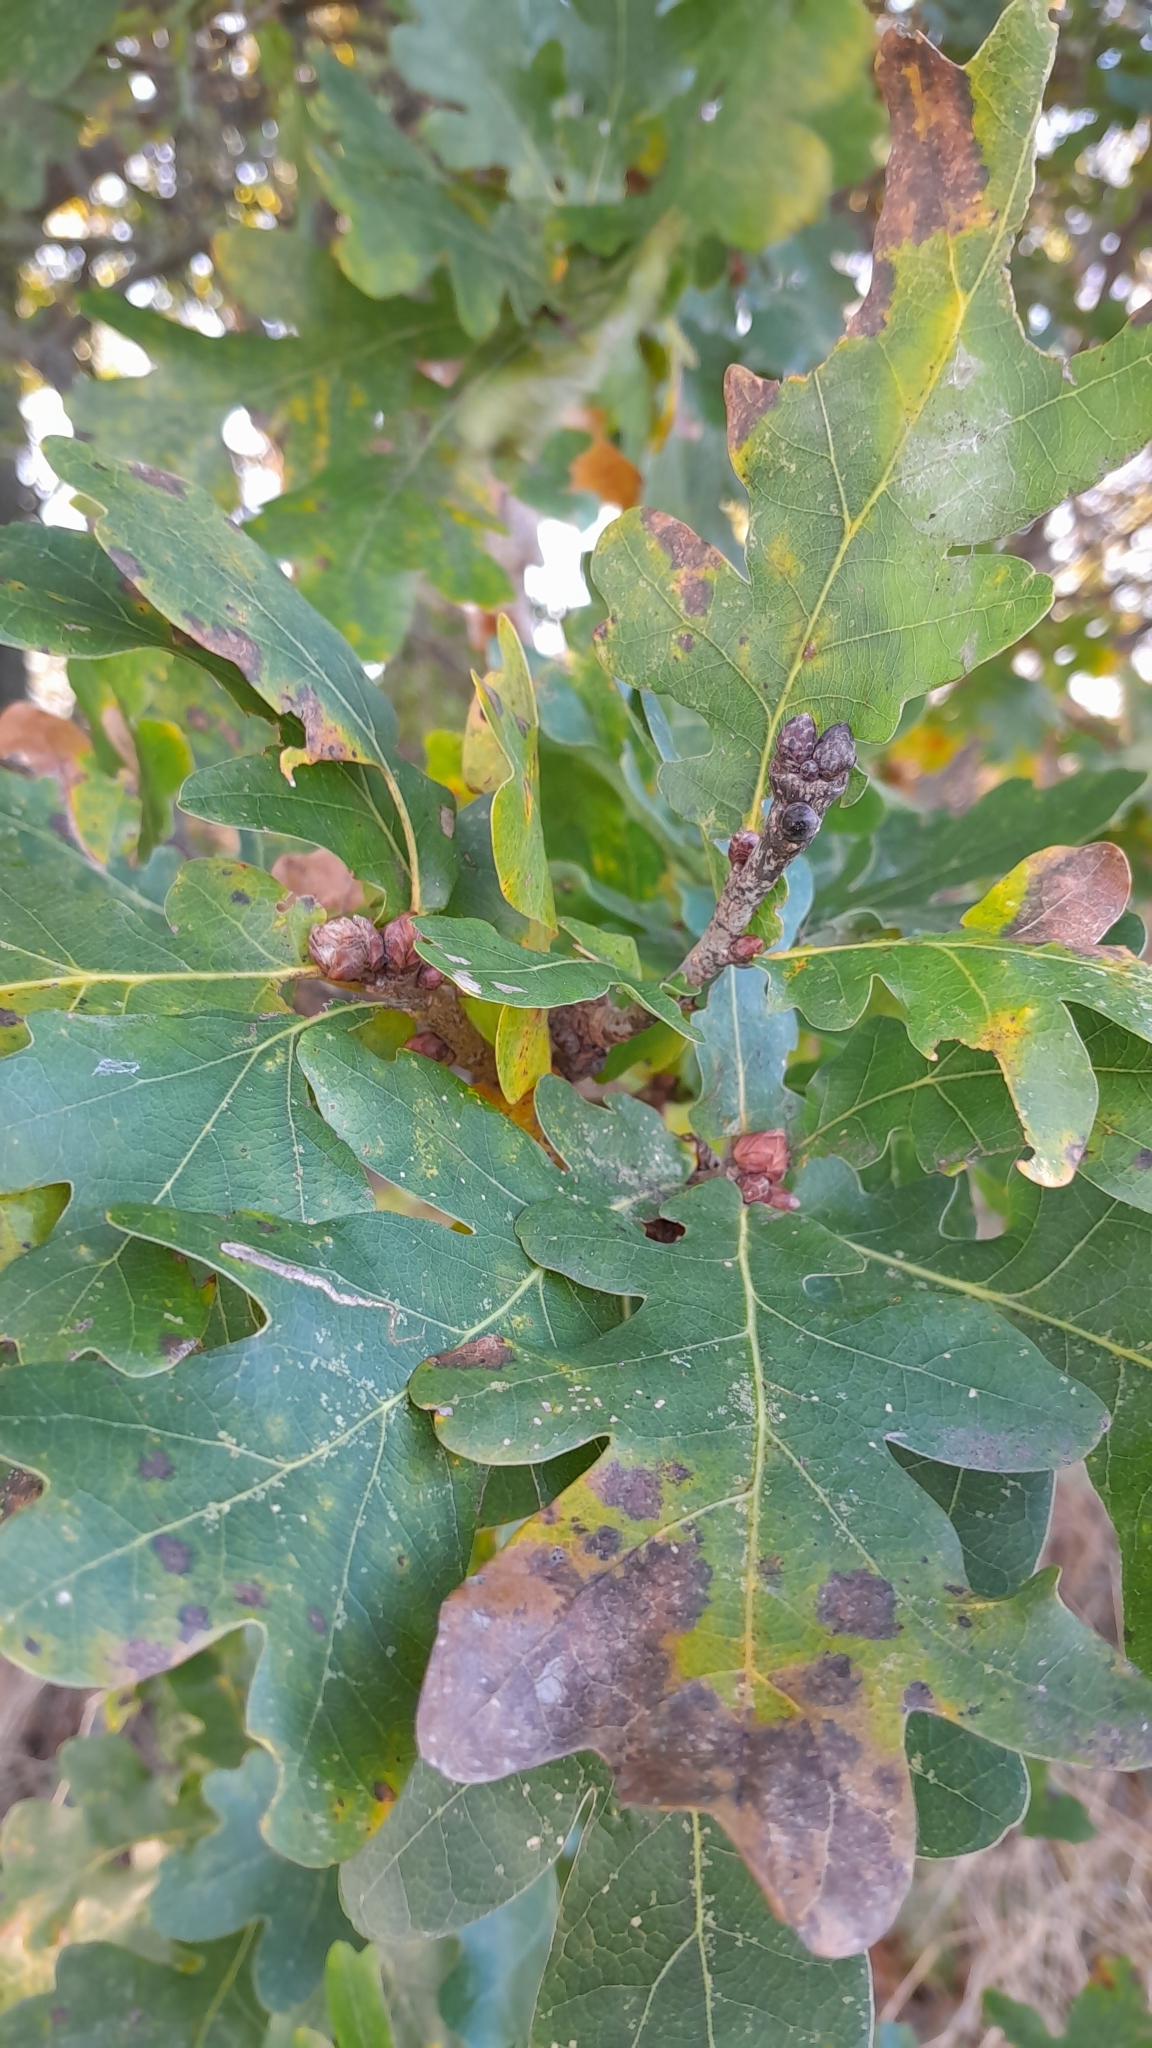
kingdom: Plantae
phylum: Tracheophyta
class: Magnoliopsida
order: Fagales
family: Fagaceae
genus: Quercus
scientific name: Quercus robur
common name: Pedunculate oak
